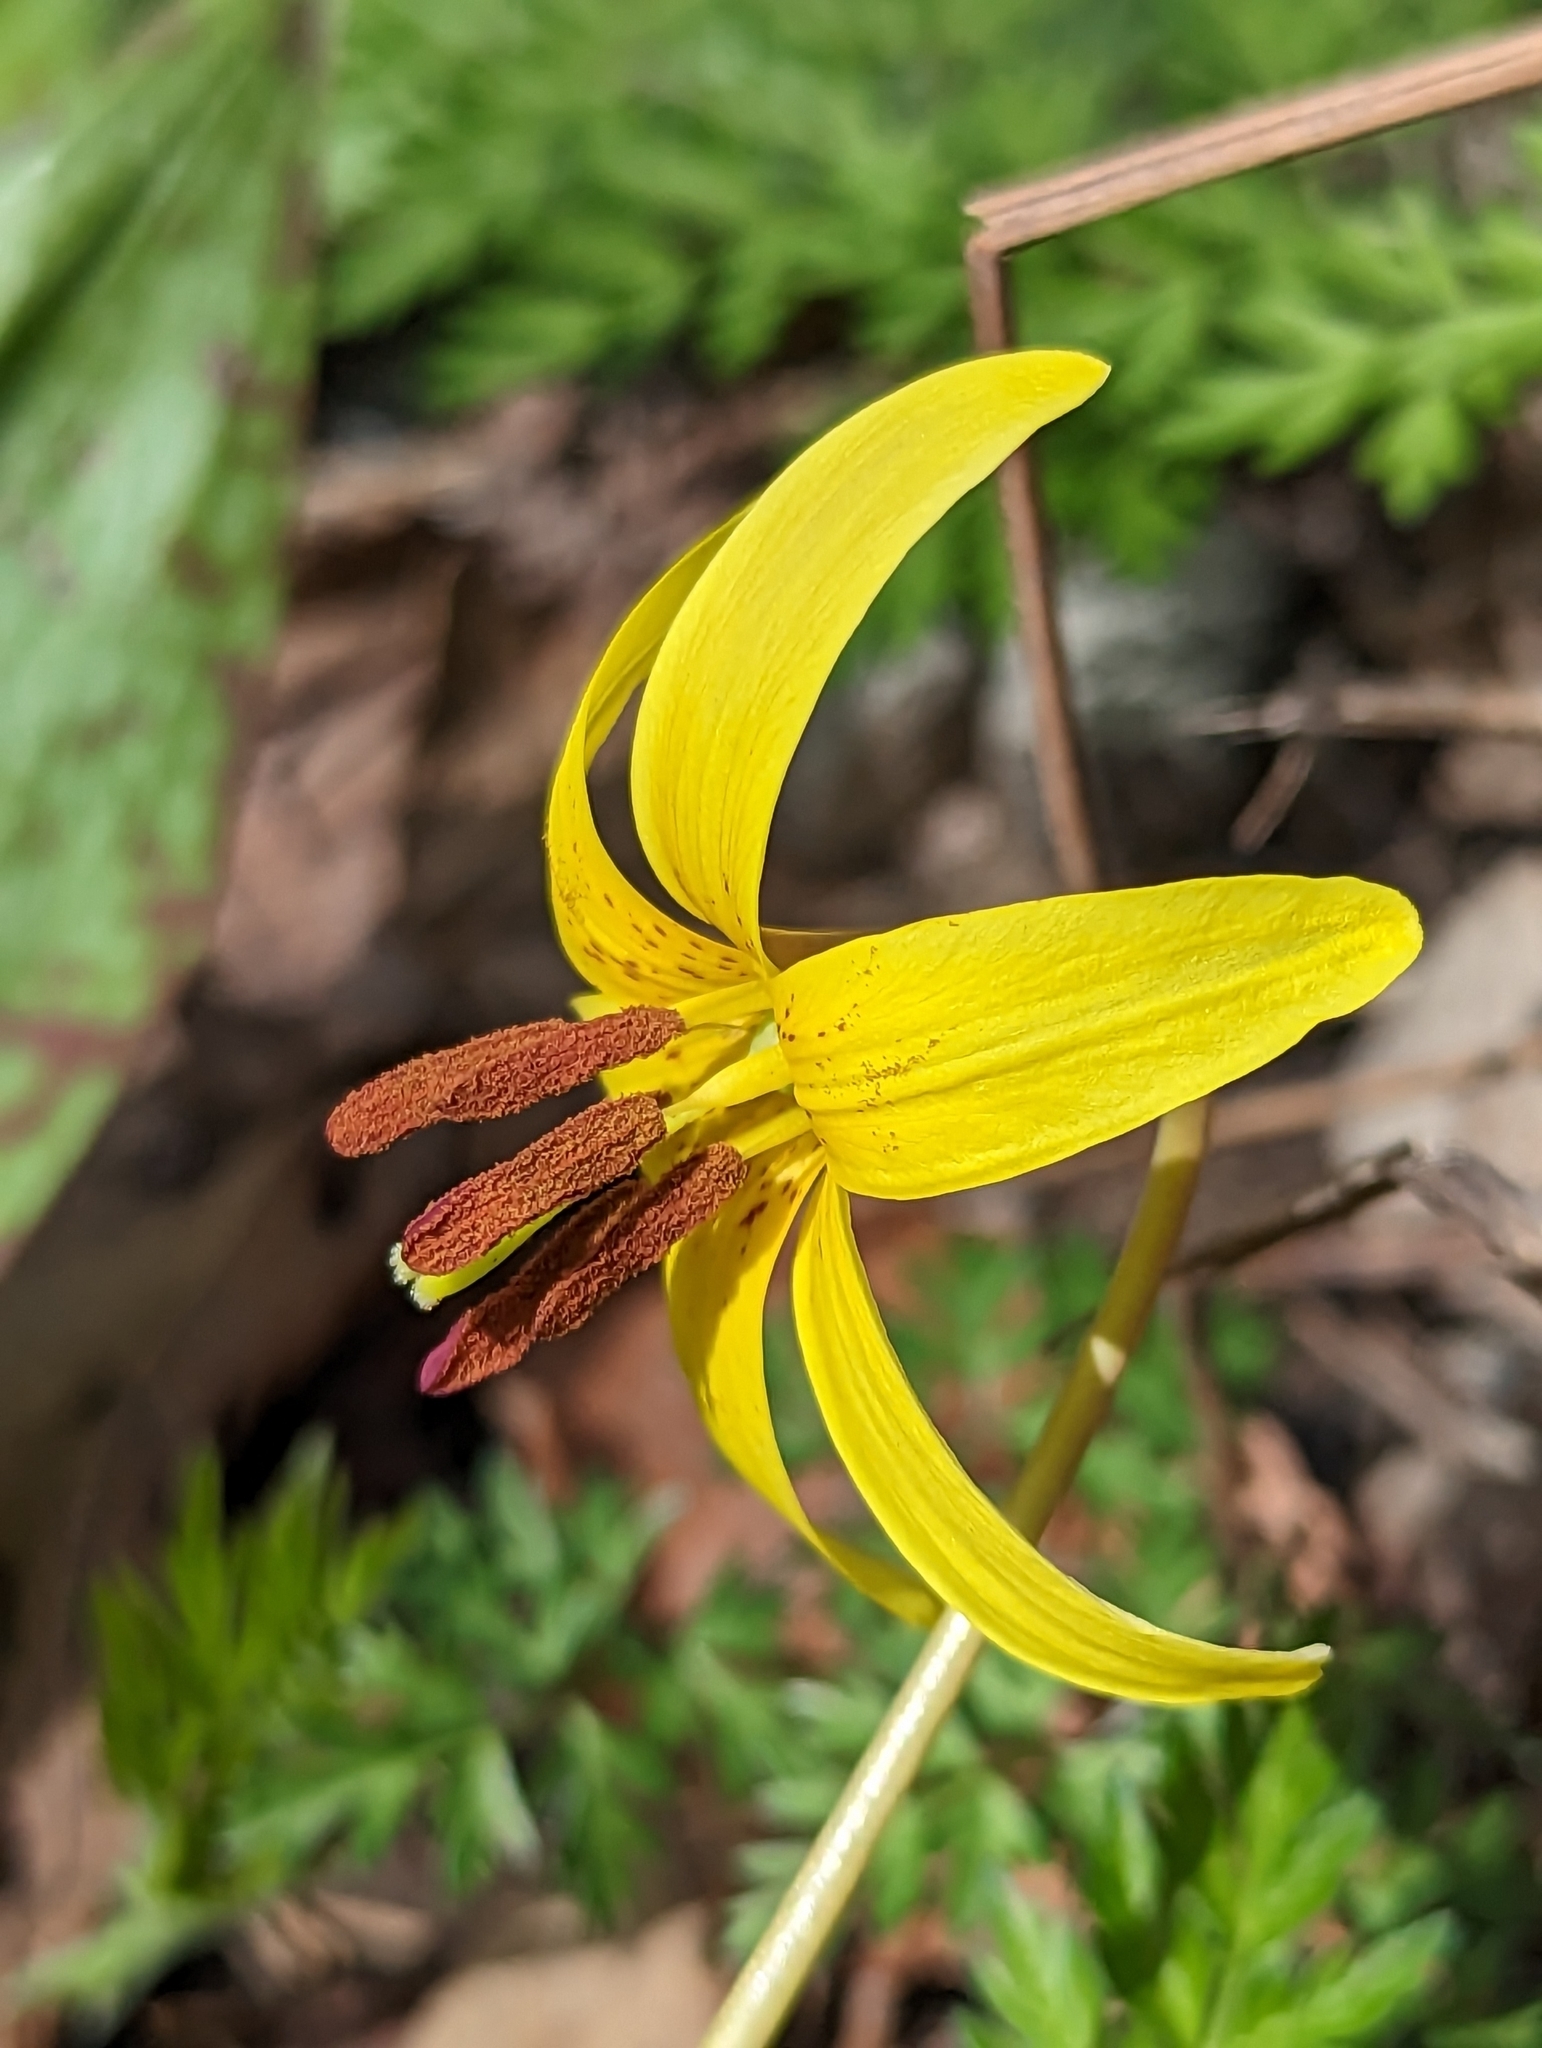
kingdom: Plantae
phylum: Tracheophyta
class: Liliopsida
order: Liliales
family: Liliaceae
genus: Erythronium
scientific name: Erythronium americanum
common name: Yellow adder's-tongue
